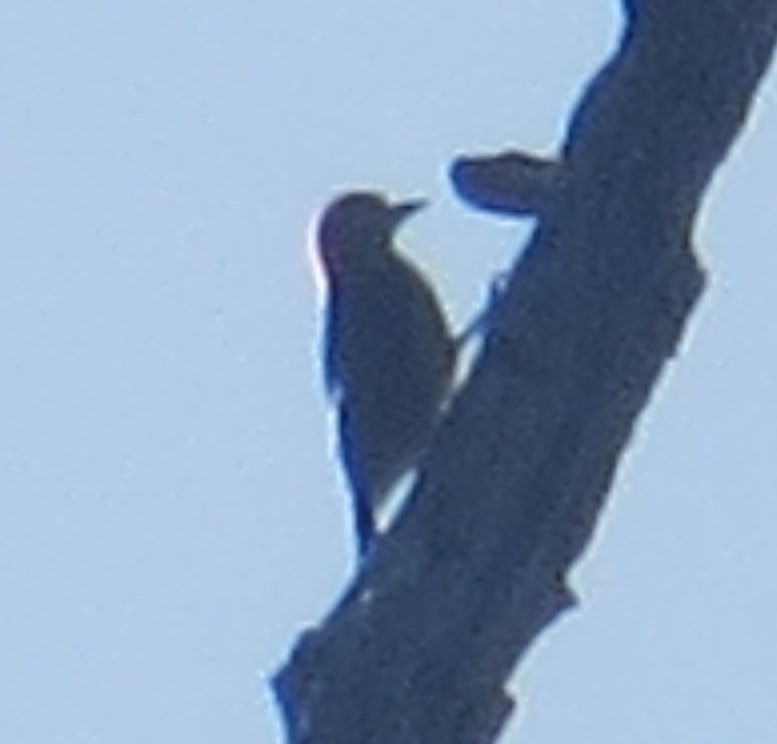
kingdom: Animalia
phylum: Chordata
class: Aves
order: Piciformes
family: Picidae
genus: Melanerpes
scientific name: Melanerpes carolinus
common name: Red-bellied woodpecker
